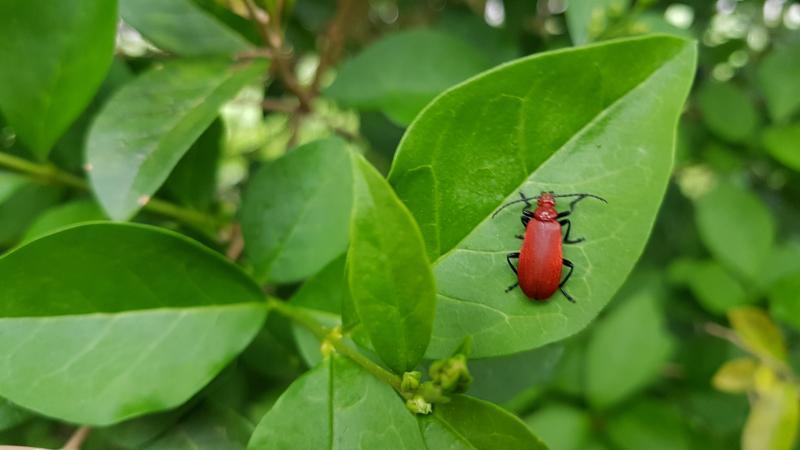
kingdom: Animalia
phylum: Arthropoda
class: Insecta
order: Coleoptera
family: Pyrochroidae
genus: Pyrochroa
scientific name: Pyrochroa serraticornis
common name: Red-headed cardinal beetle
